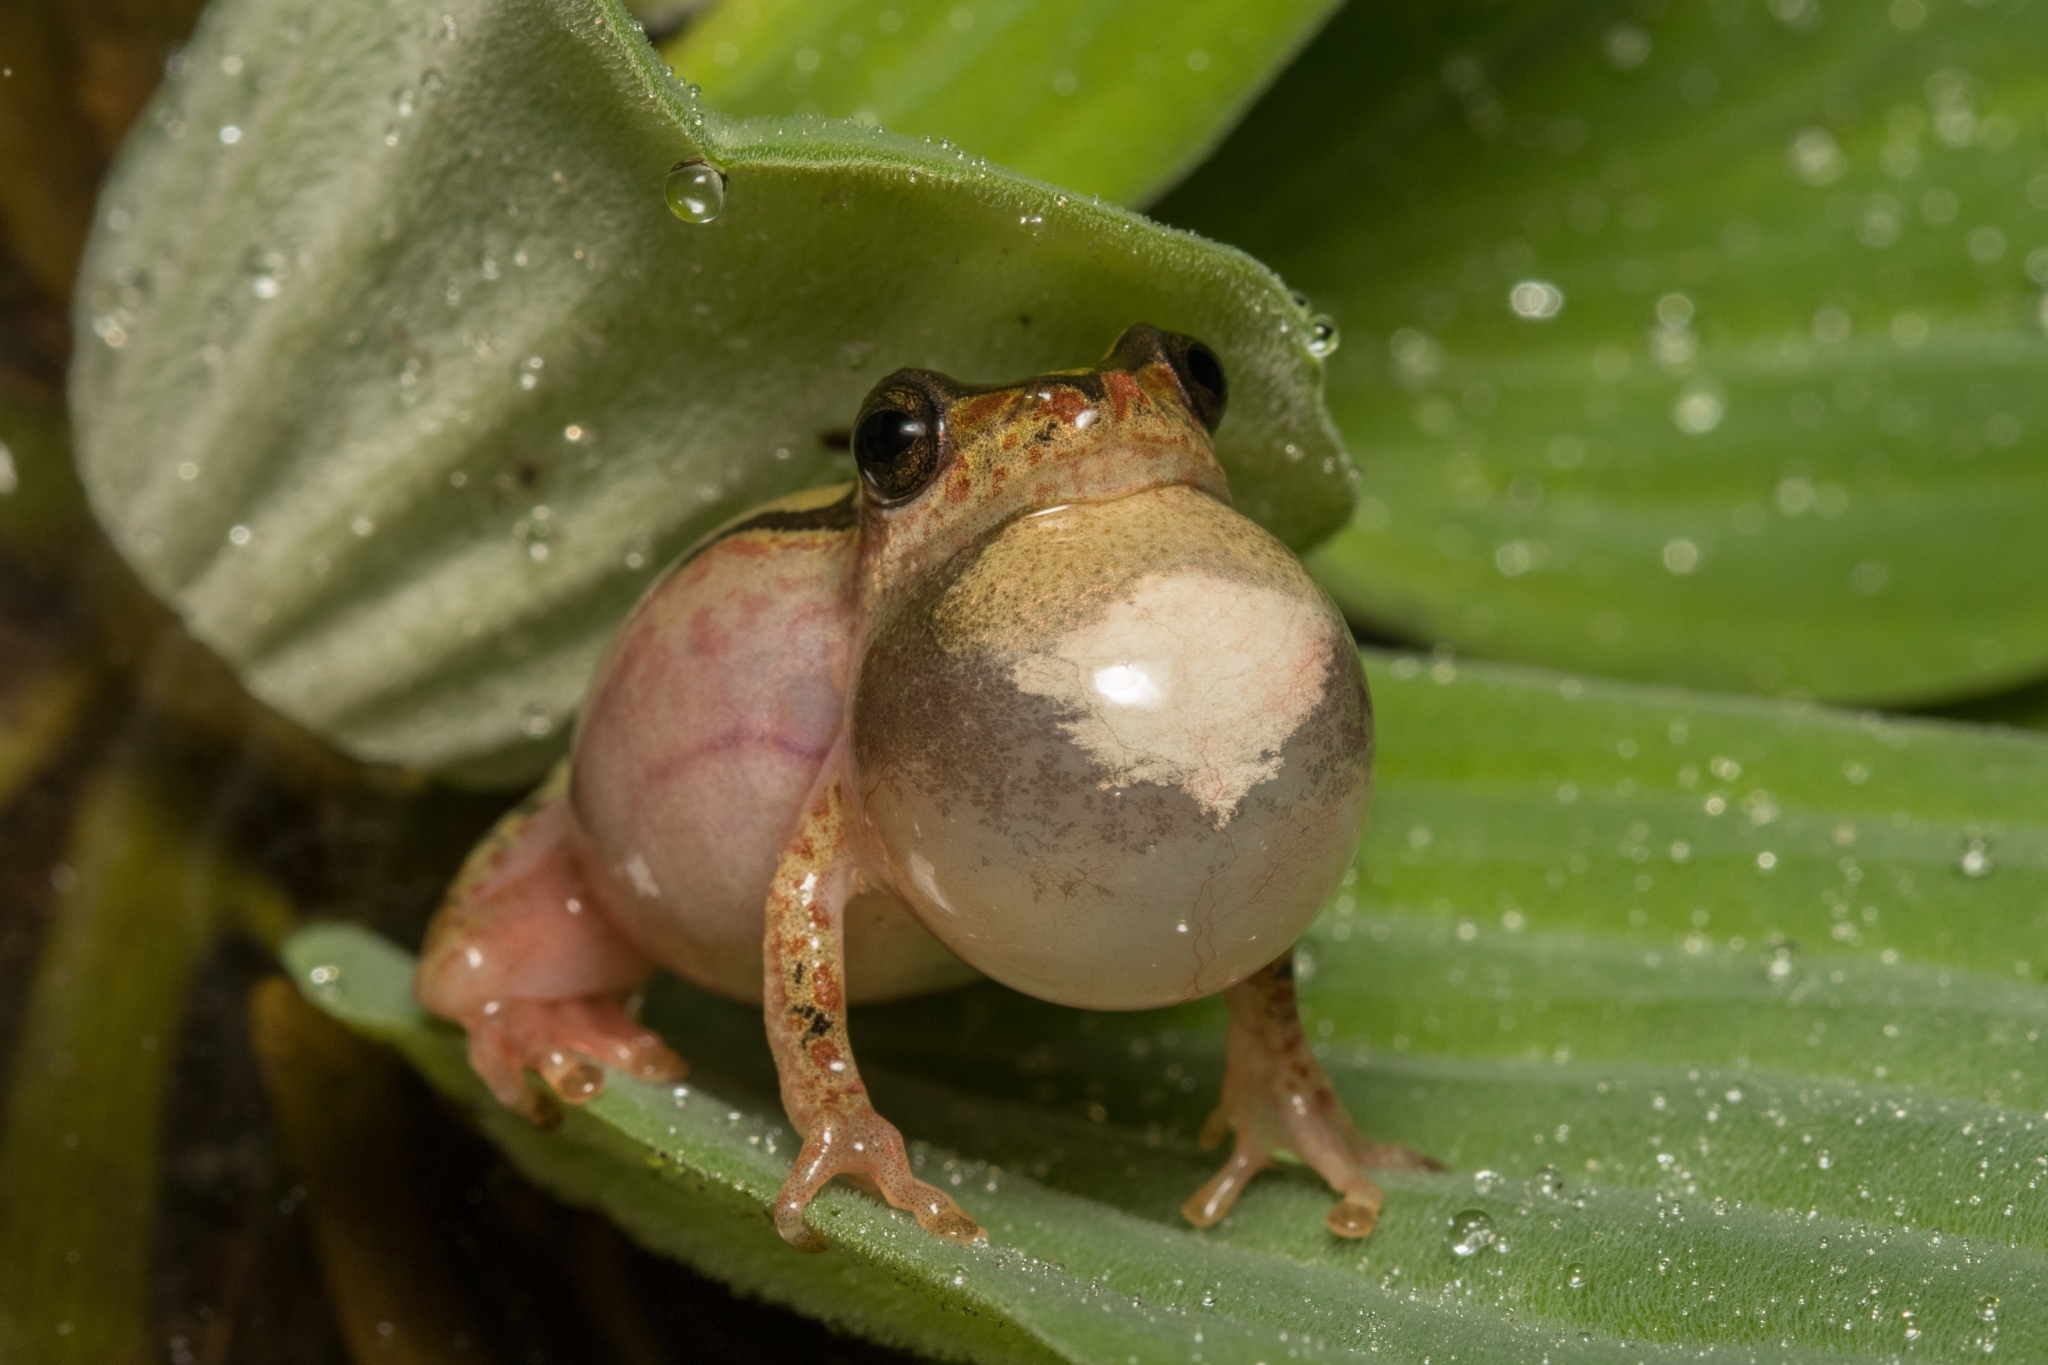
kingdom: Animalia
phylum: Chordata
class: Amphibia
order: Anura
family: Hyperoliidae
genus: Hyperolius
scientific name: Hyperolius marmoratus
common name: Painted reed frog
